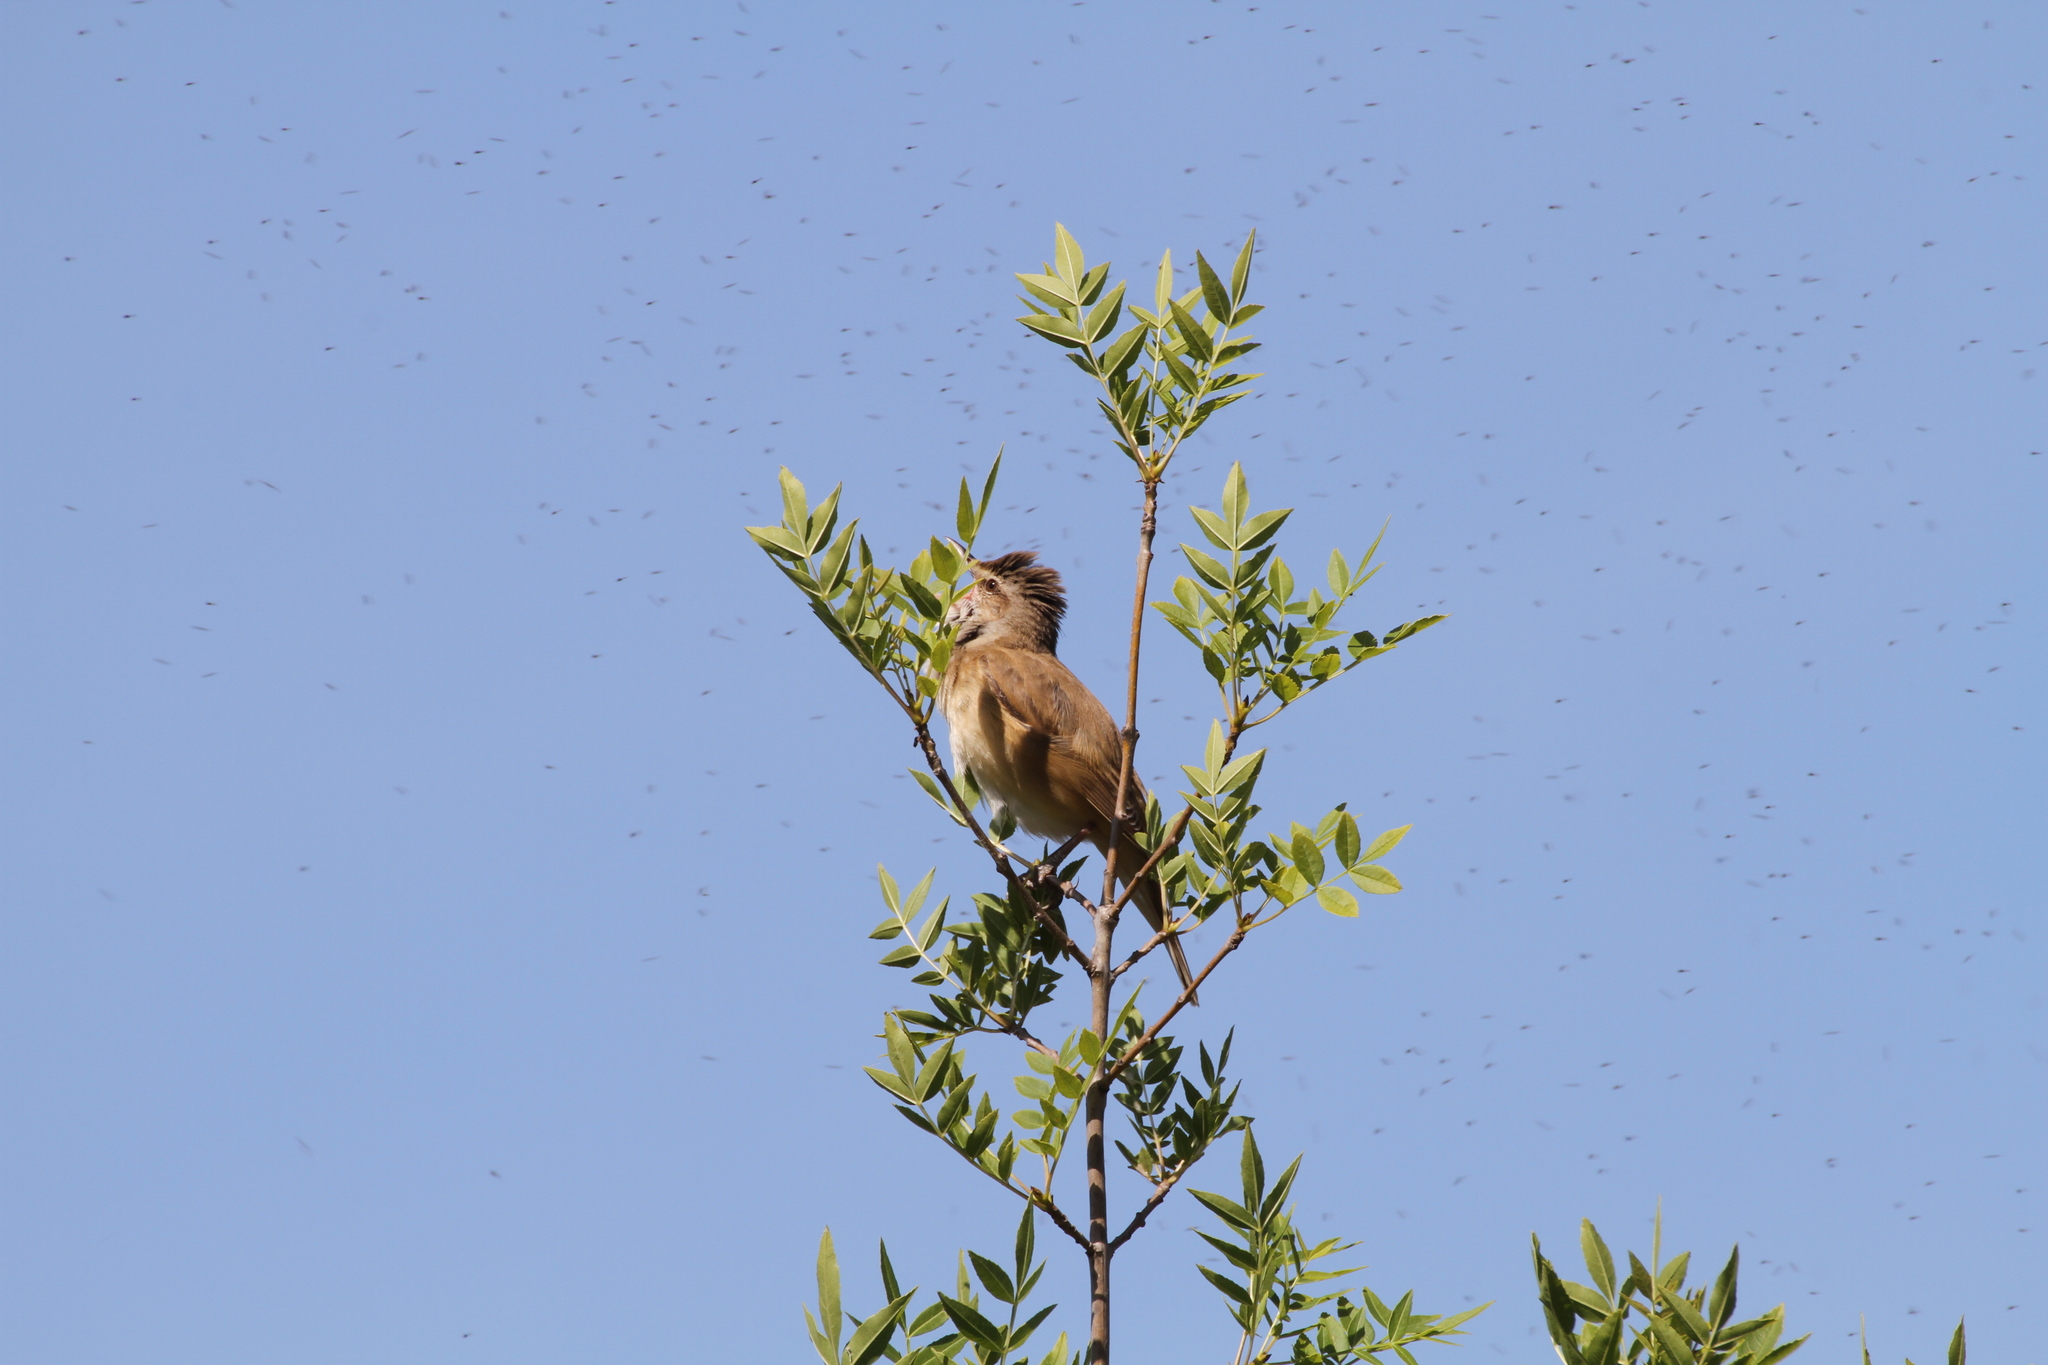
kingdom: Animalia
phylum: Chordata
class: Aves
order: Passeriformes
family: Acrocephalidae
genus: Acrocephalus
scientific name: Acrocephalus arundinaceus
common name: Great reed warbler
